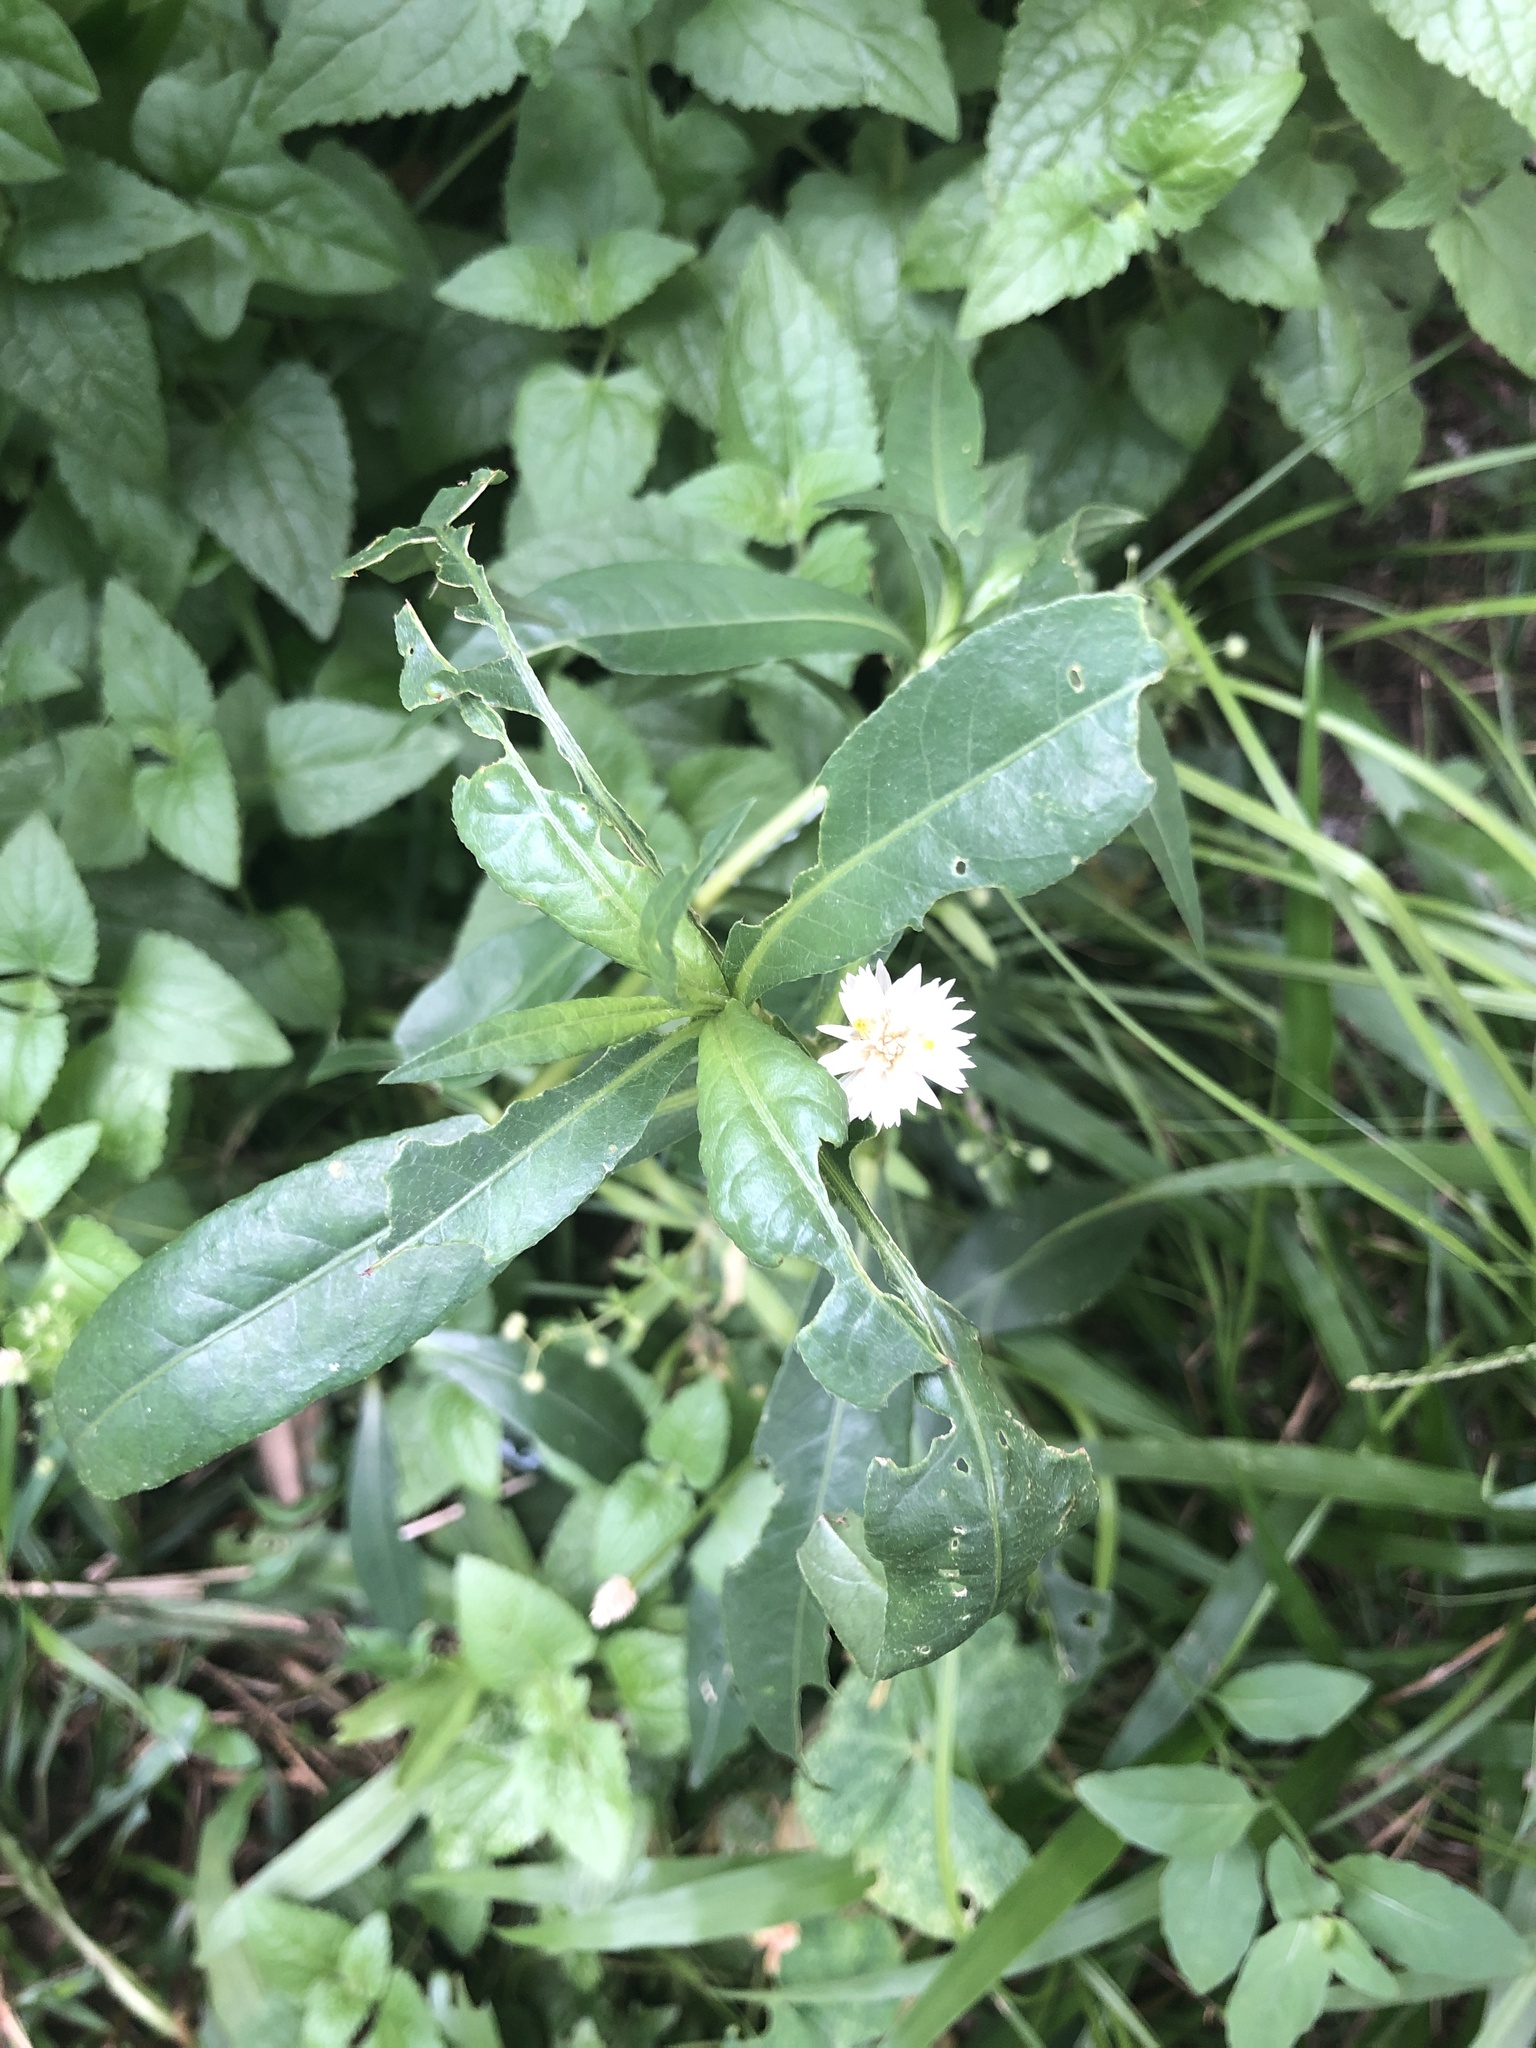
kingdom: Plantae
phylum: Tracheophyta
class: Magnoliopsida
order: Caryophyllales
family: Amaranthaceae
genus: Alternanthera
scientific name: Alternanthera philoxeroides
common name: Alligatorweed
